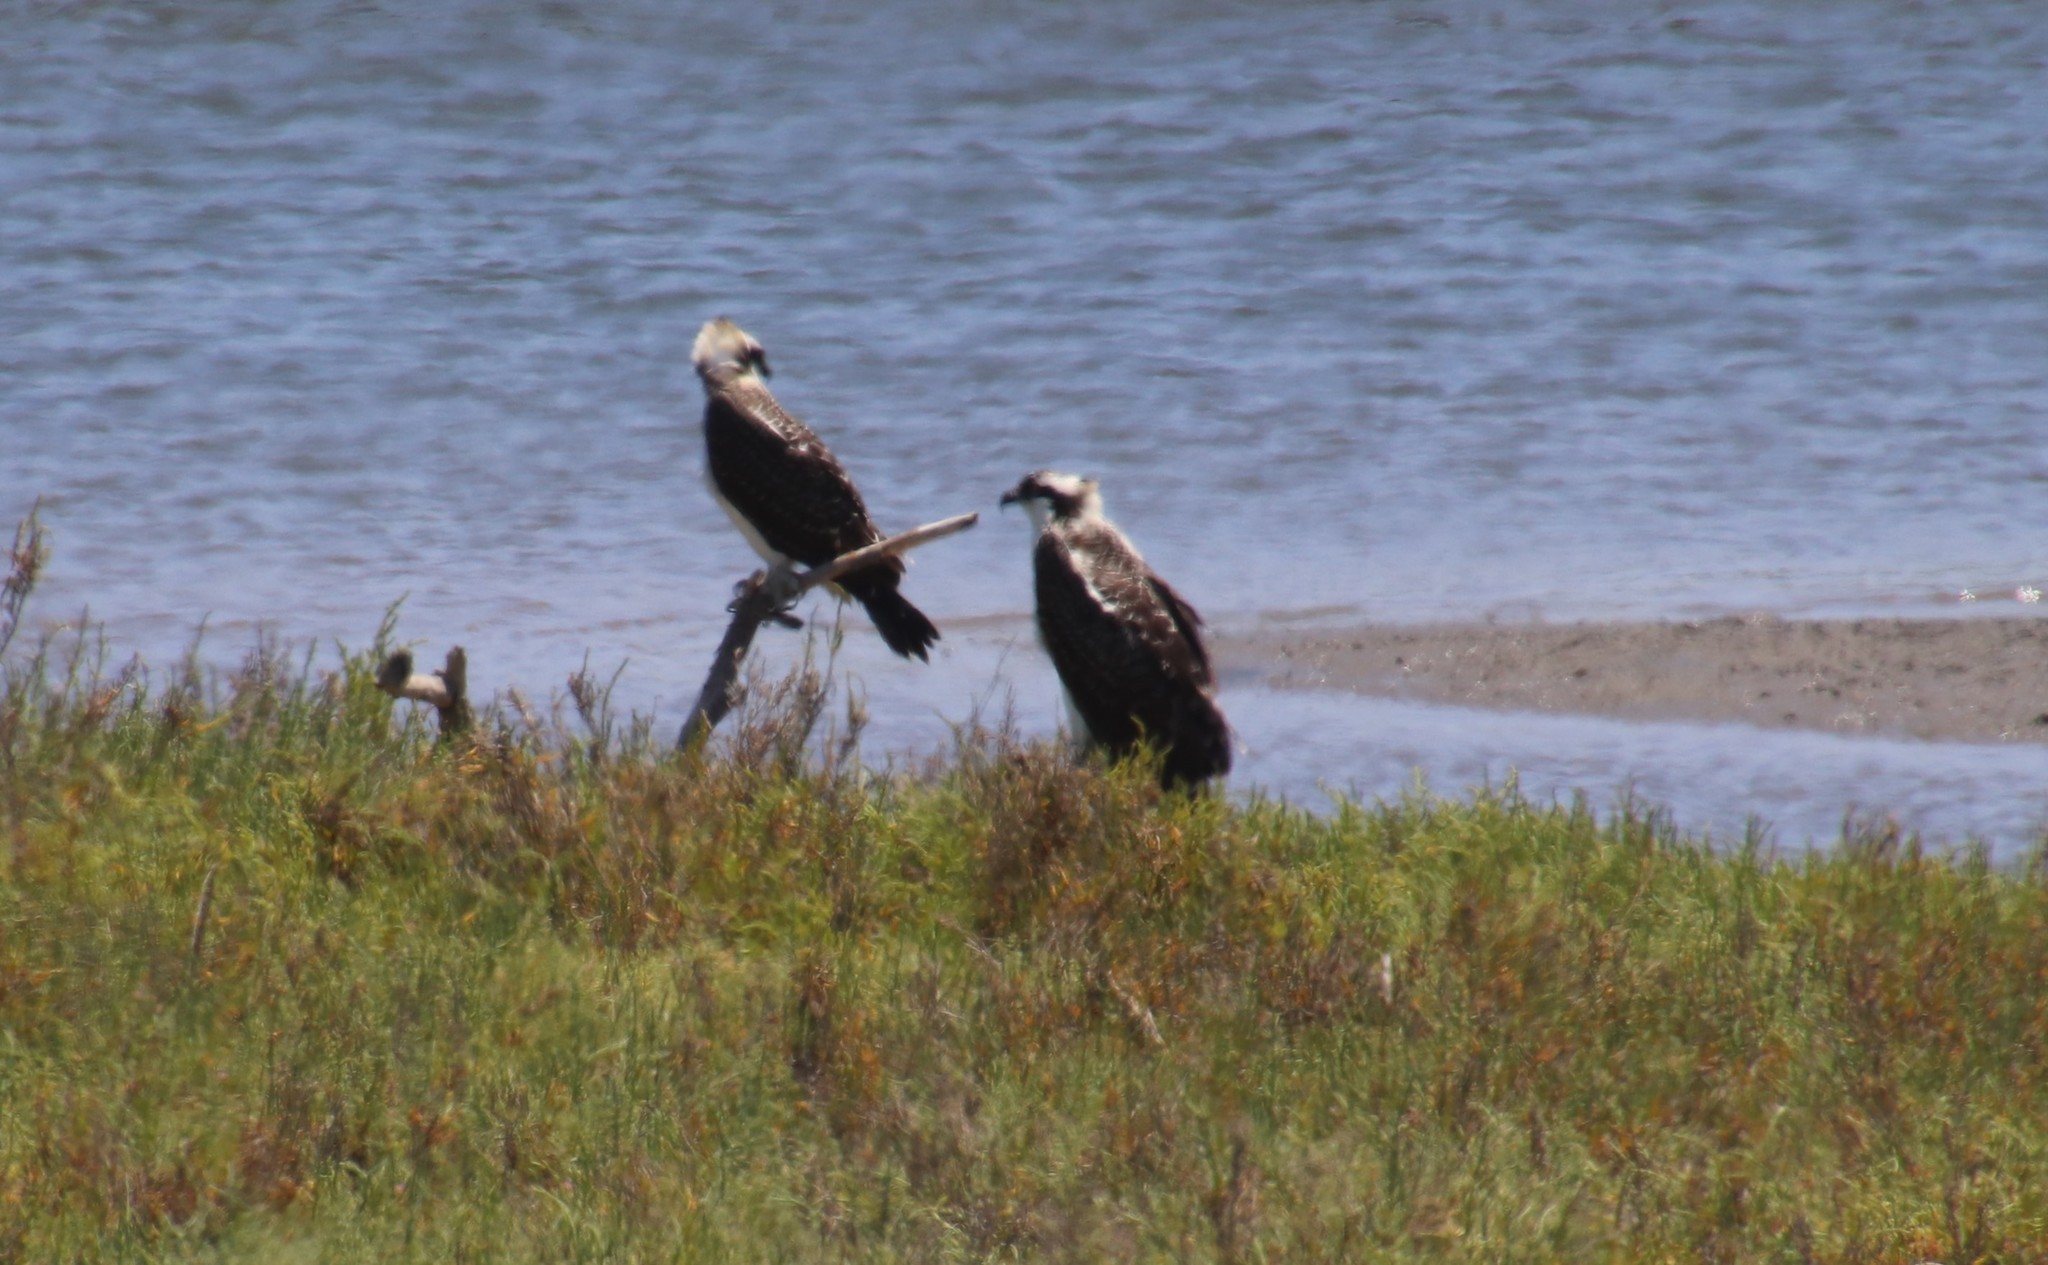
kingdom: Animalia
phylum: Chordata
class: Aves
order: Accipitriformes
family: Pandionidae
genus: Pandion
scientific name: Pandion haliaetus
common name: Osprey
